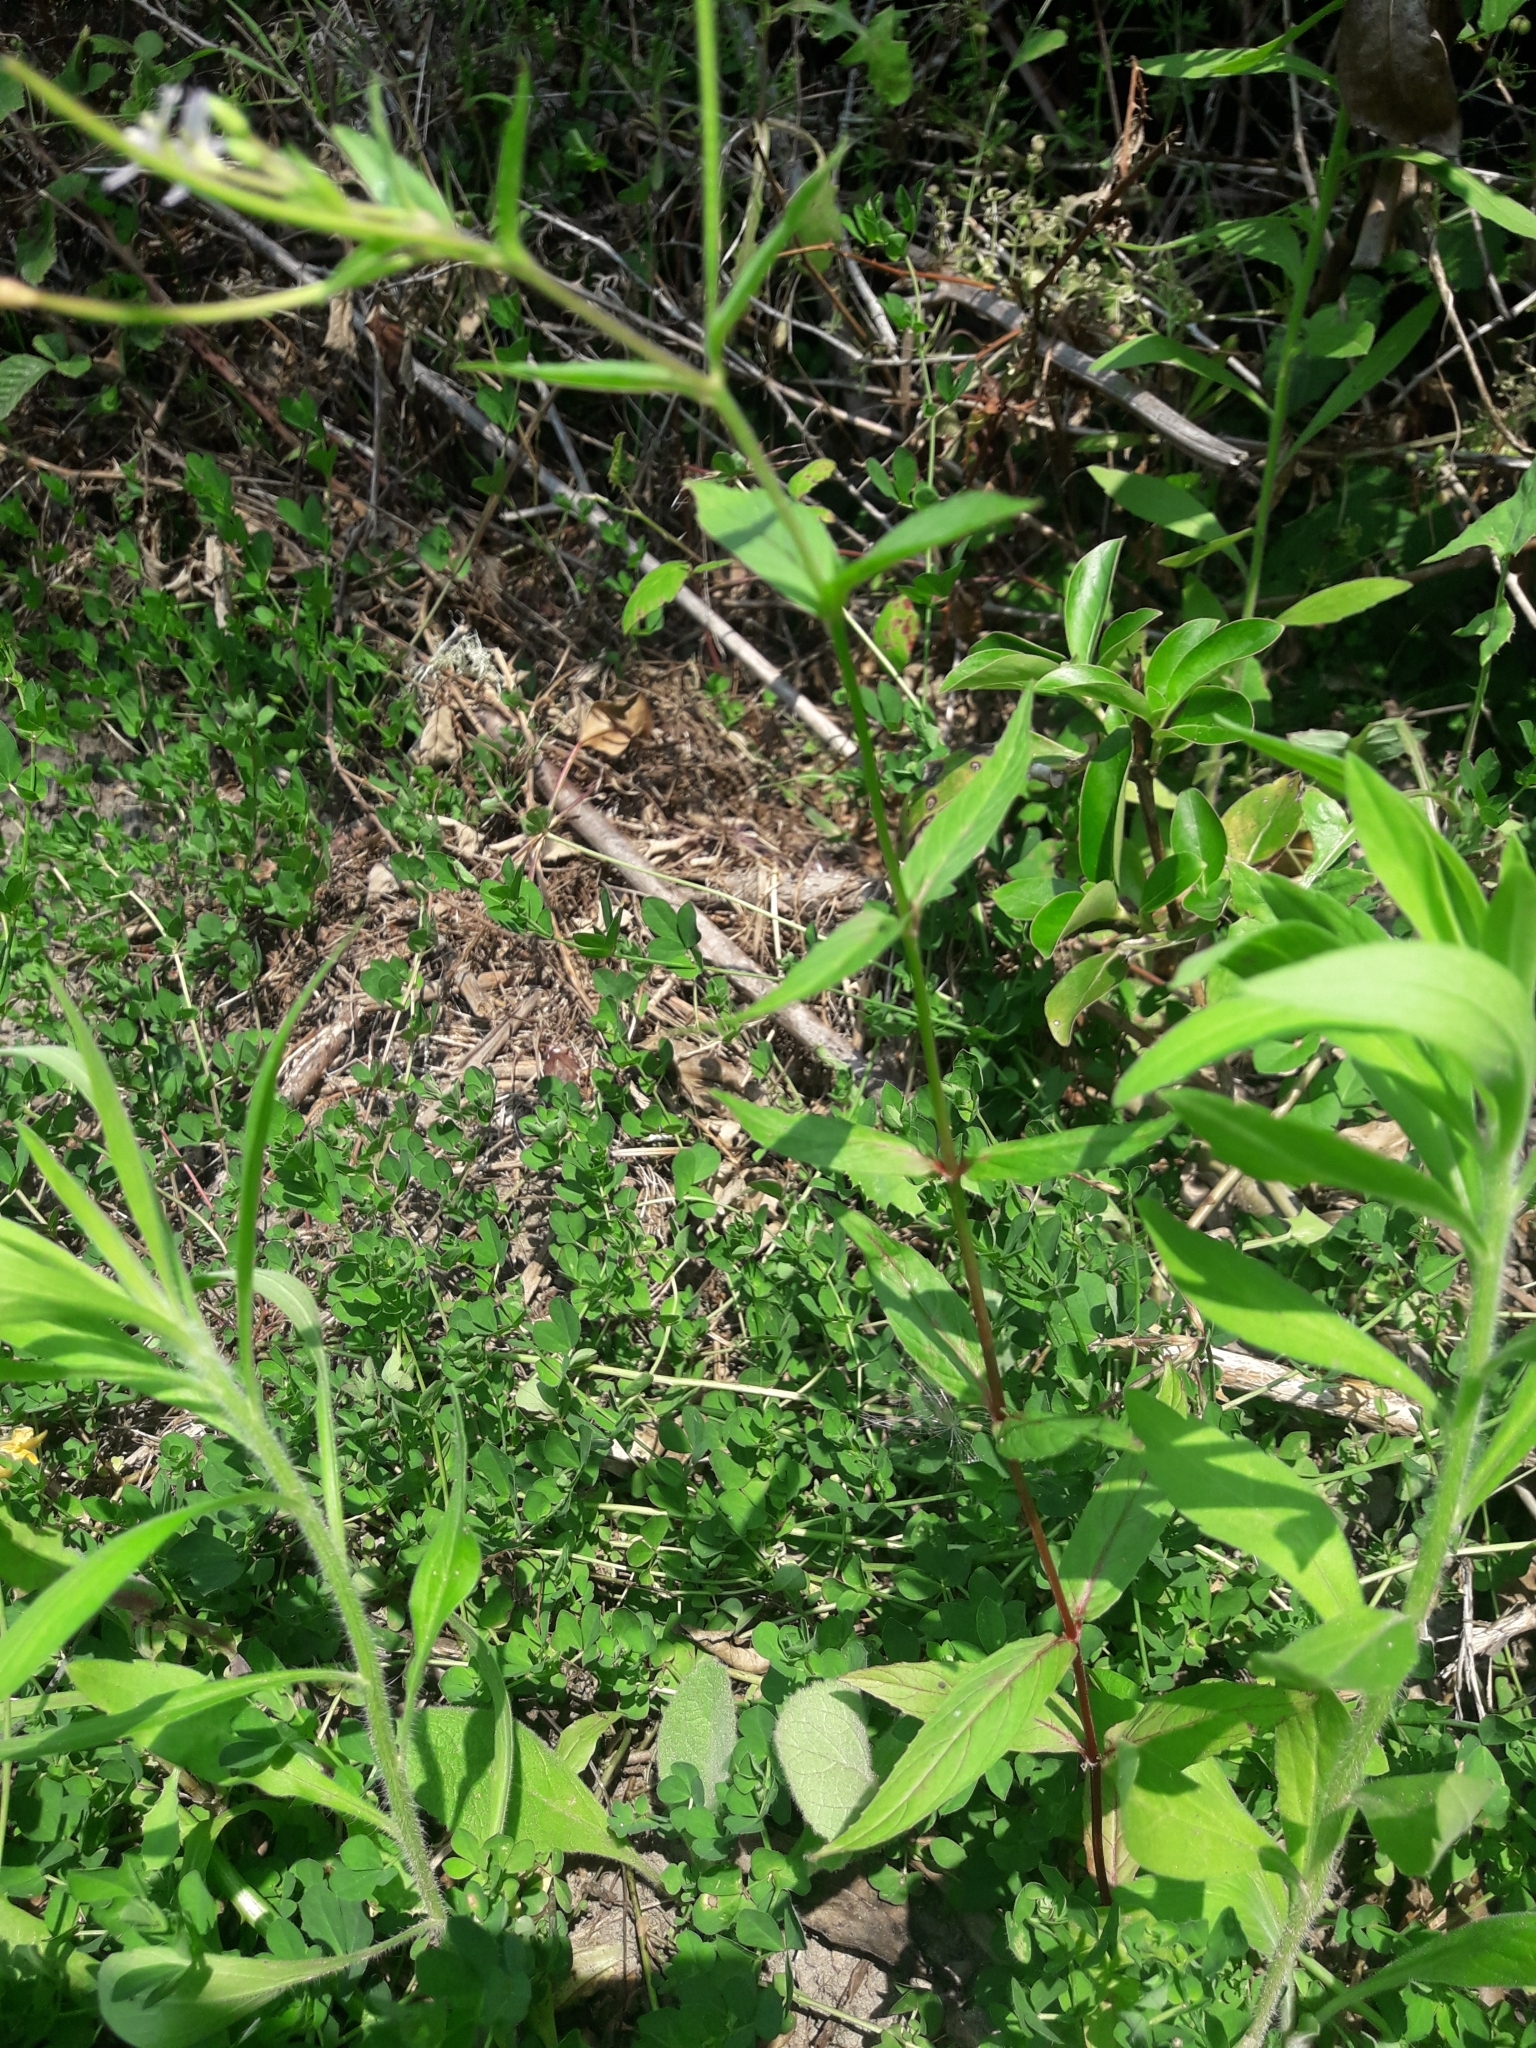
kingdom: Plantae
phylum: Tracheophyta
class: Magnoliopsida
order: Myrtales
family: Onagraceae
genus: Epilobium
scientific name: Epilobium ciliatum
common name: American willowherb
